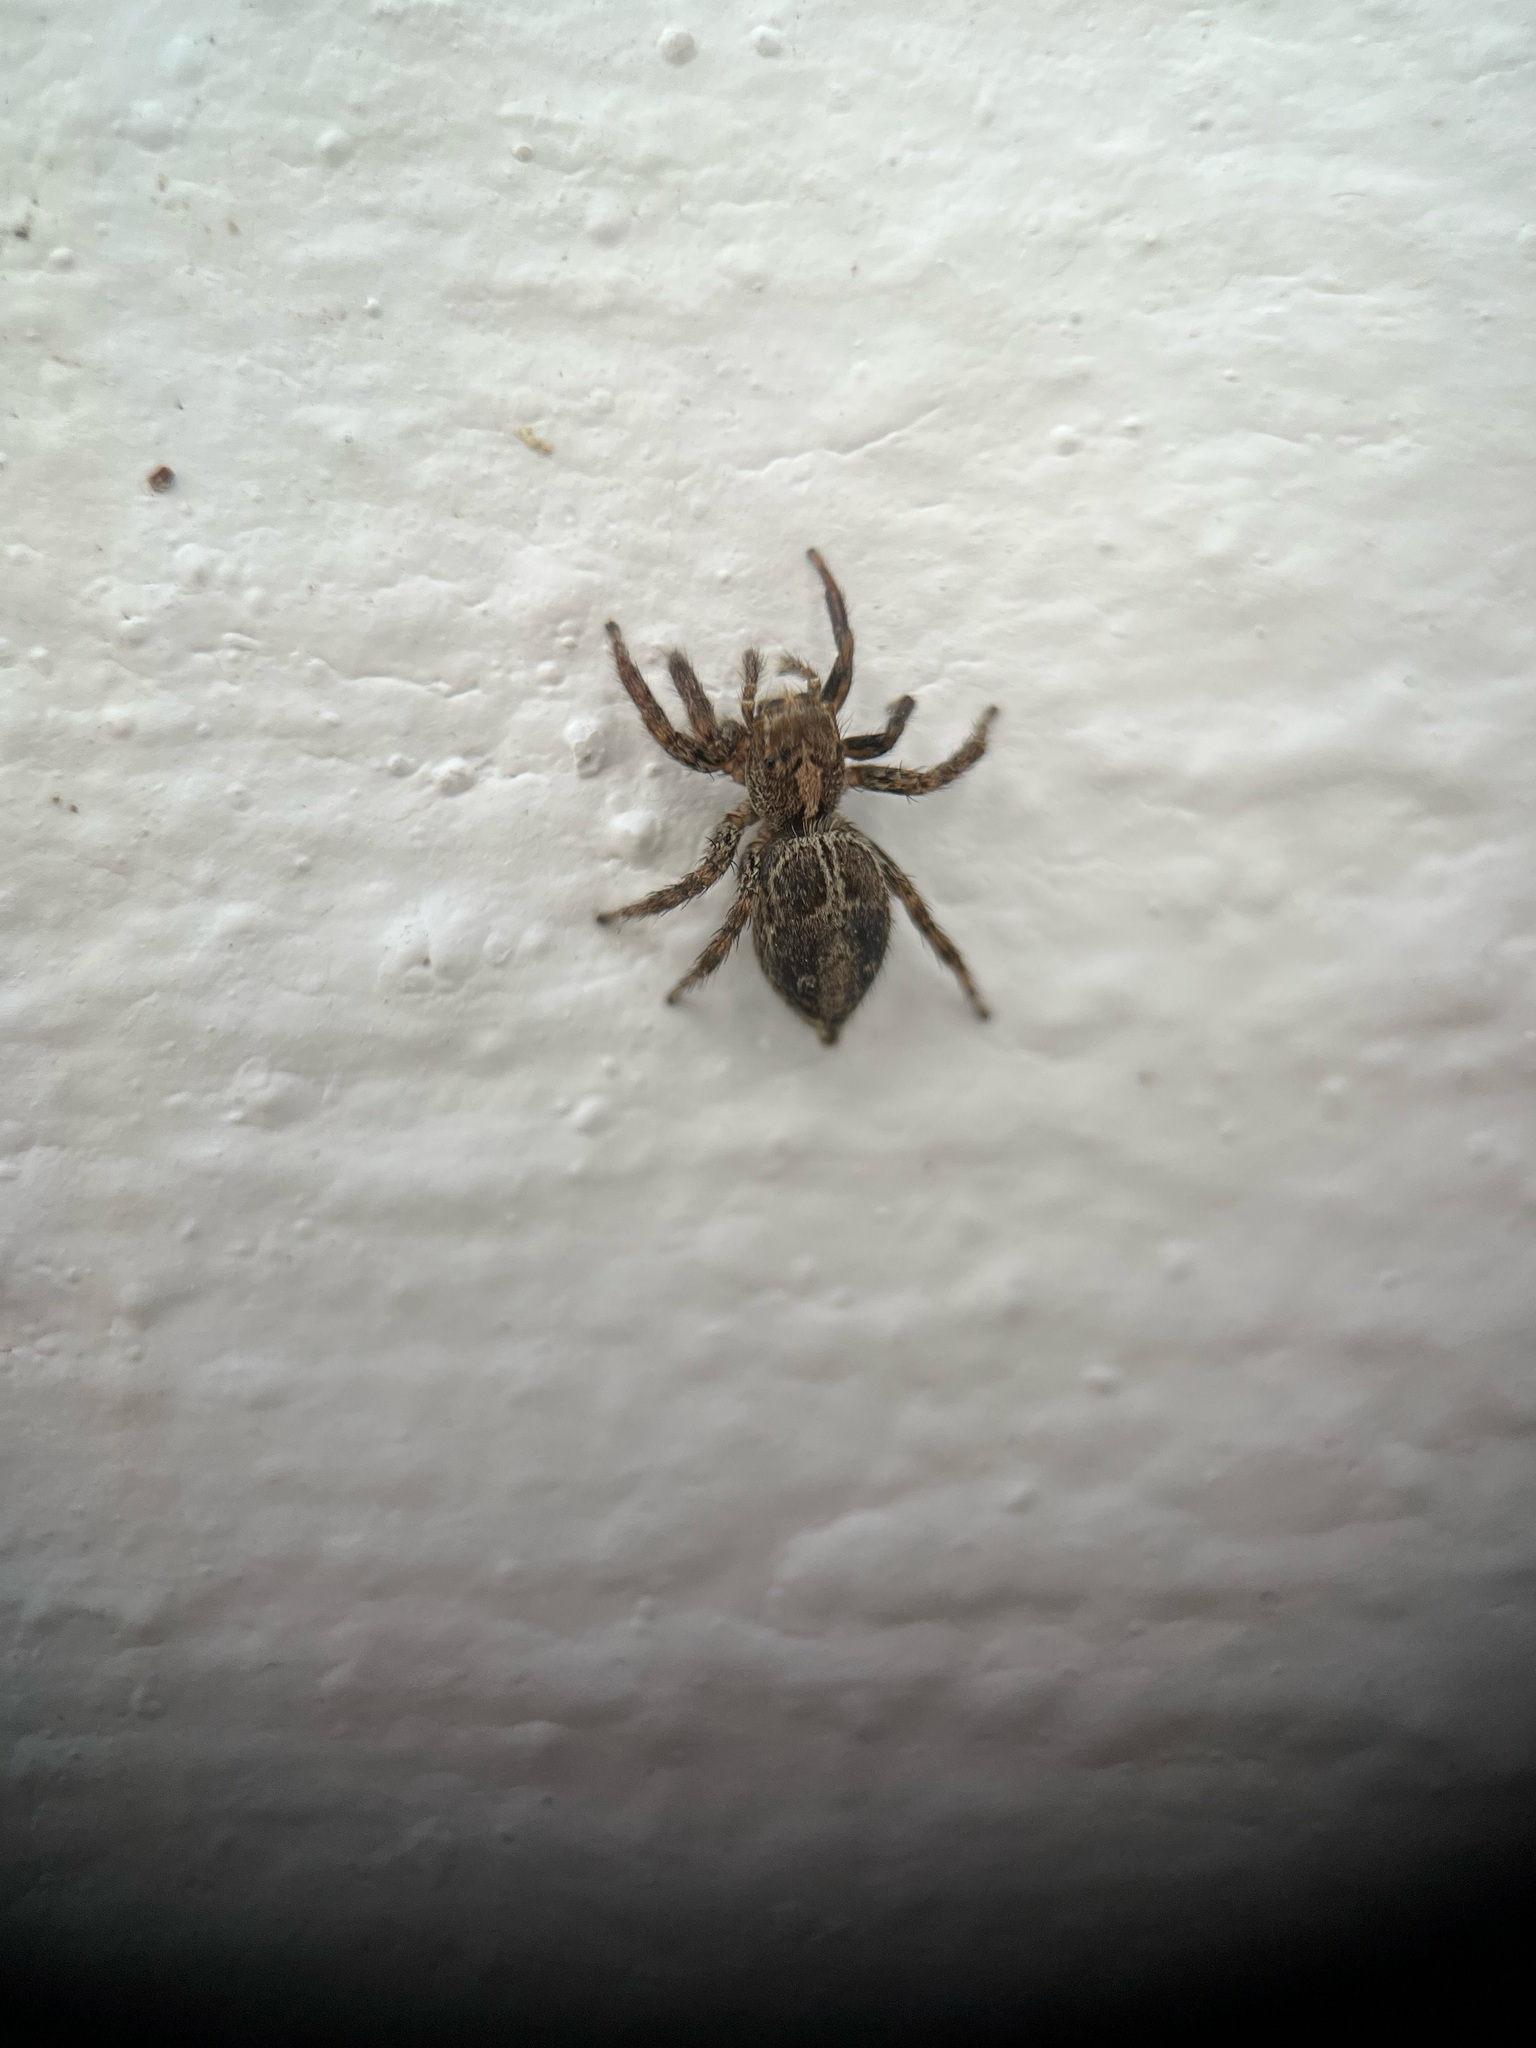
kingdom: Animalia
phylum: Arthropoda
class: Arachnida
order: Araneae
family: Salticidae
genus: Plexippus
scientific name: Plexippus paykulli
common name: Pantropical jumper
